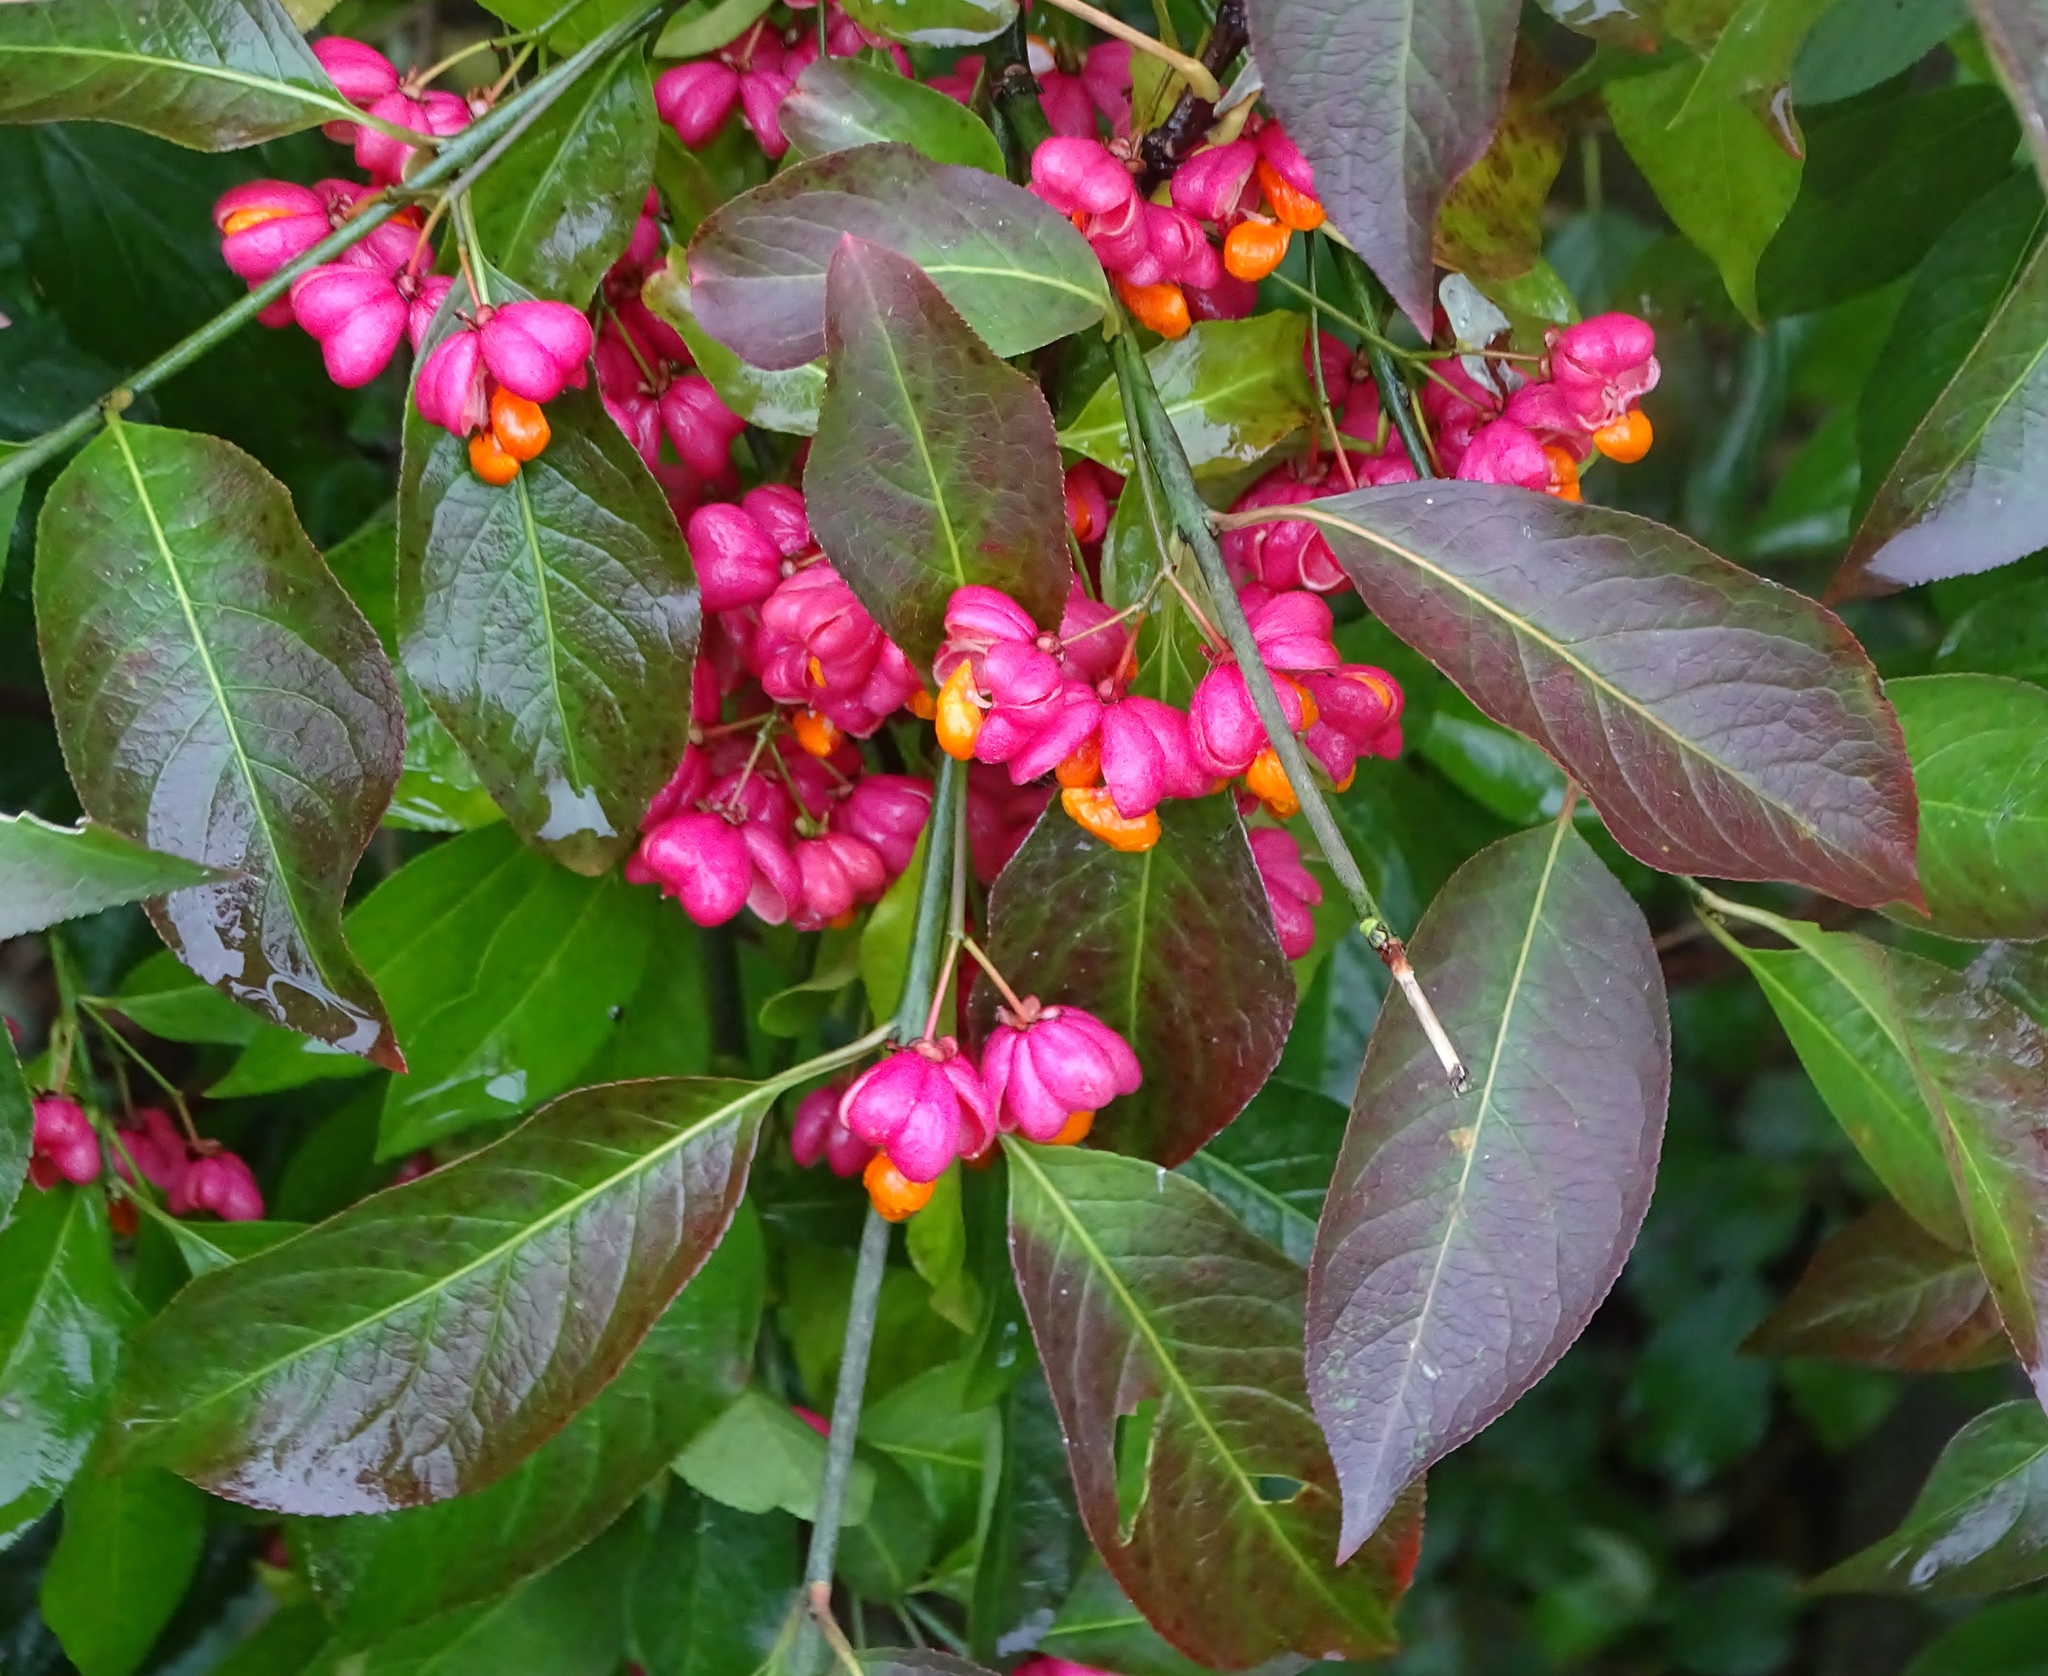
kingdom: Plantae
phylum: Tracheophyta
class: Magnoliopsida
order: Celastrales
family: Celastraceae
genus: Euonymus
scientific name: Euonymus europaeus
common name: Spindle
